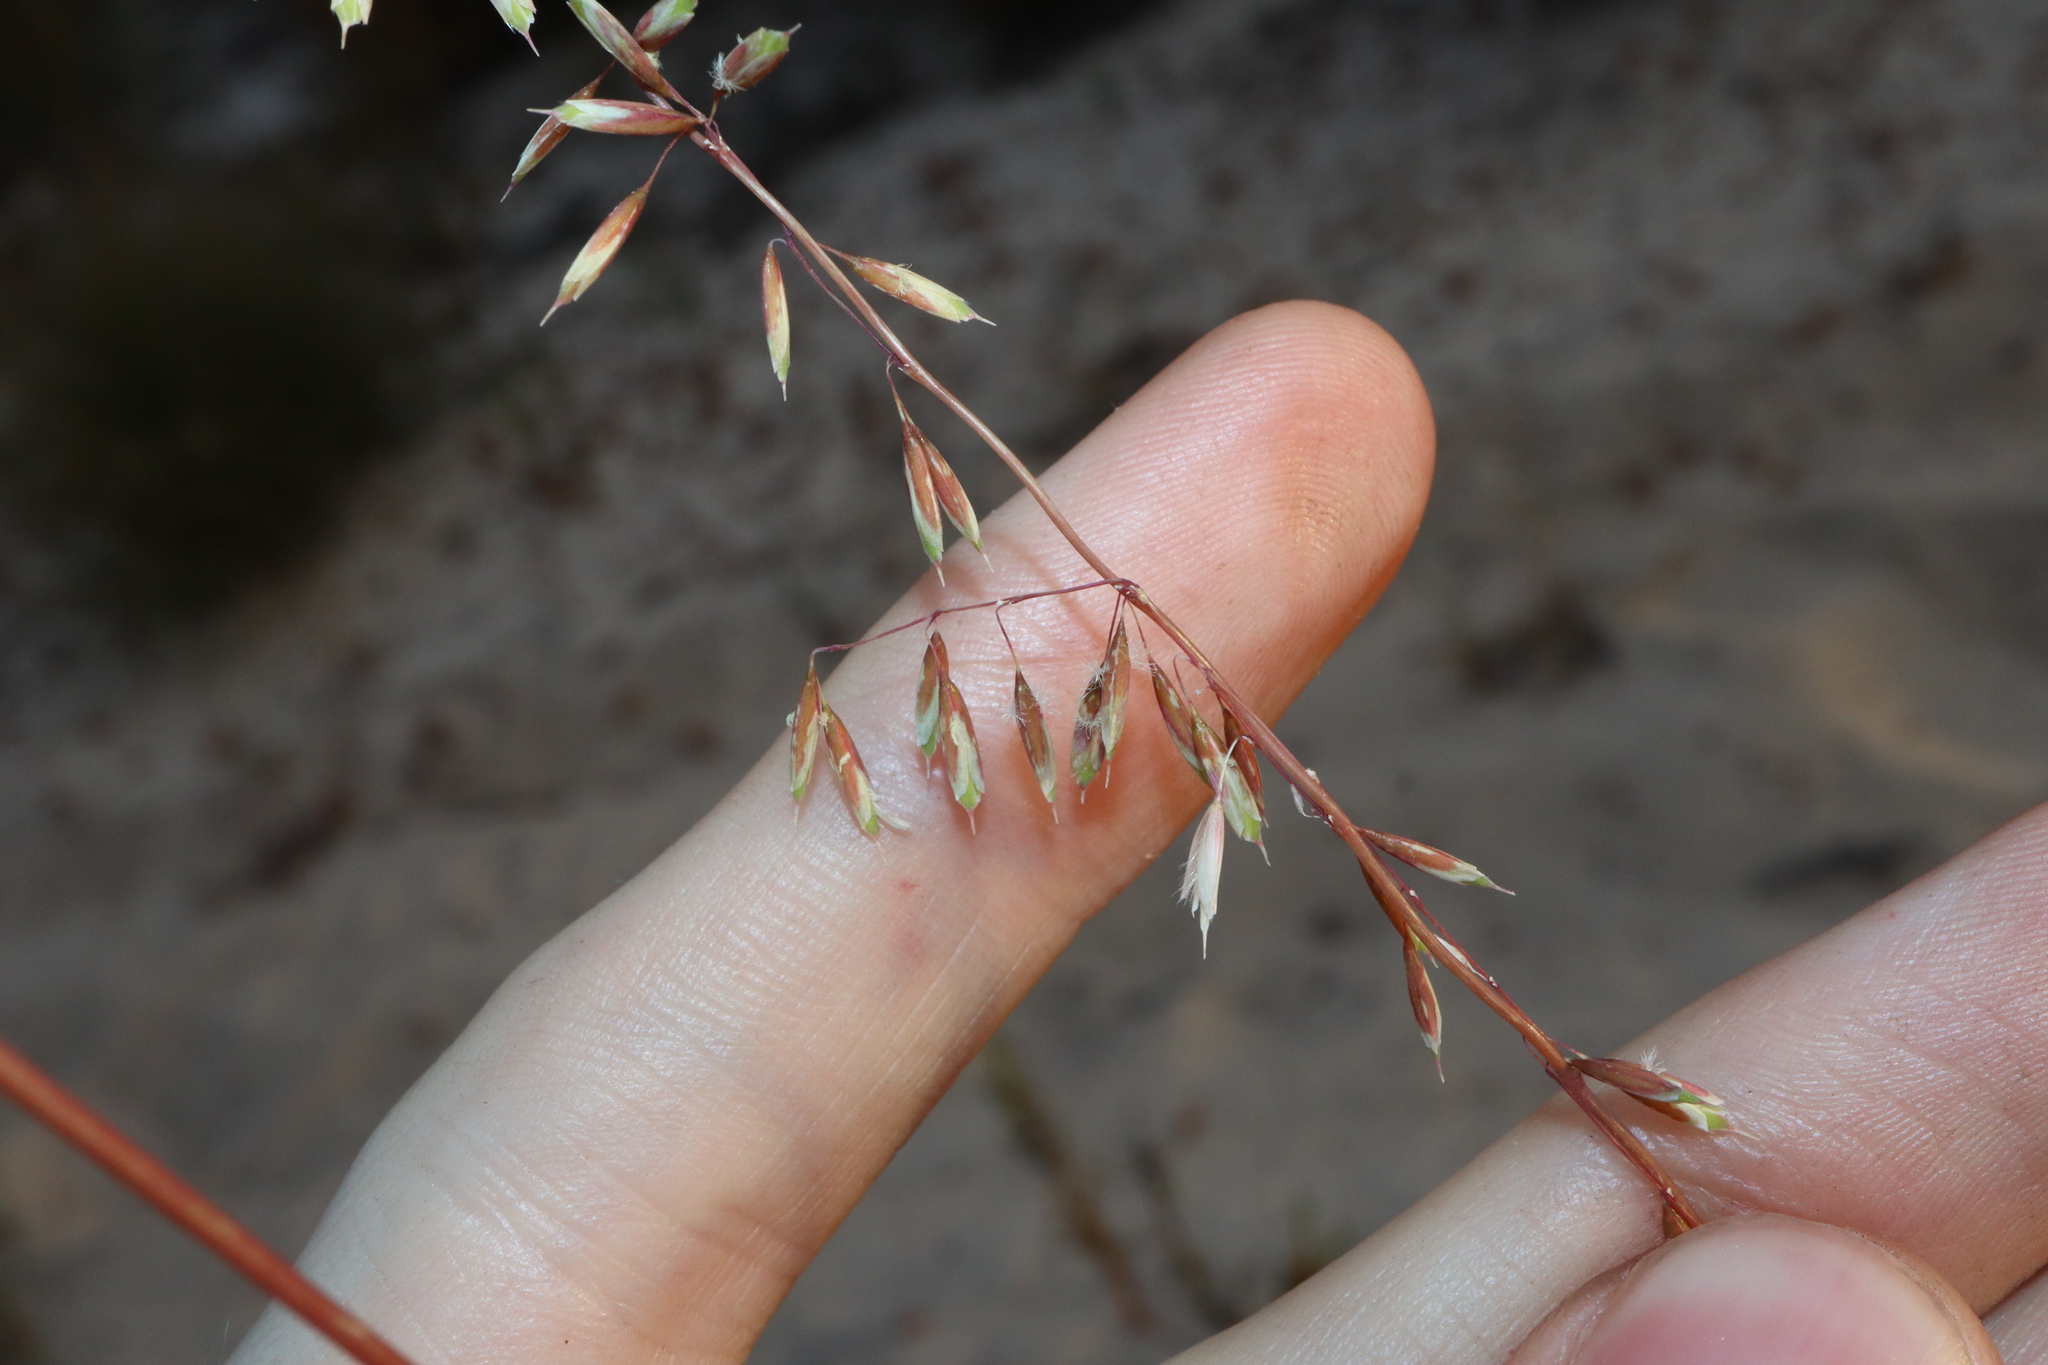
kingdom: Plantae
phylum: Tracheophyta
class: Liliopsida
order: Poales
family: Poaceae
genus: Ehrharta
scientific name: Ehrharta calycina
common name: Perennial veldtgrass
